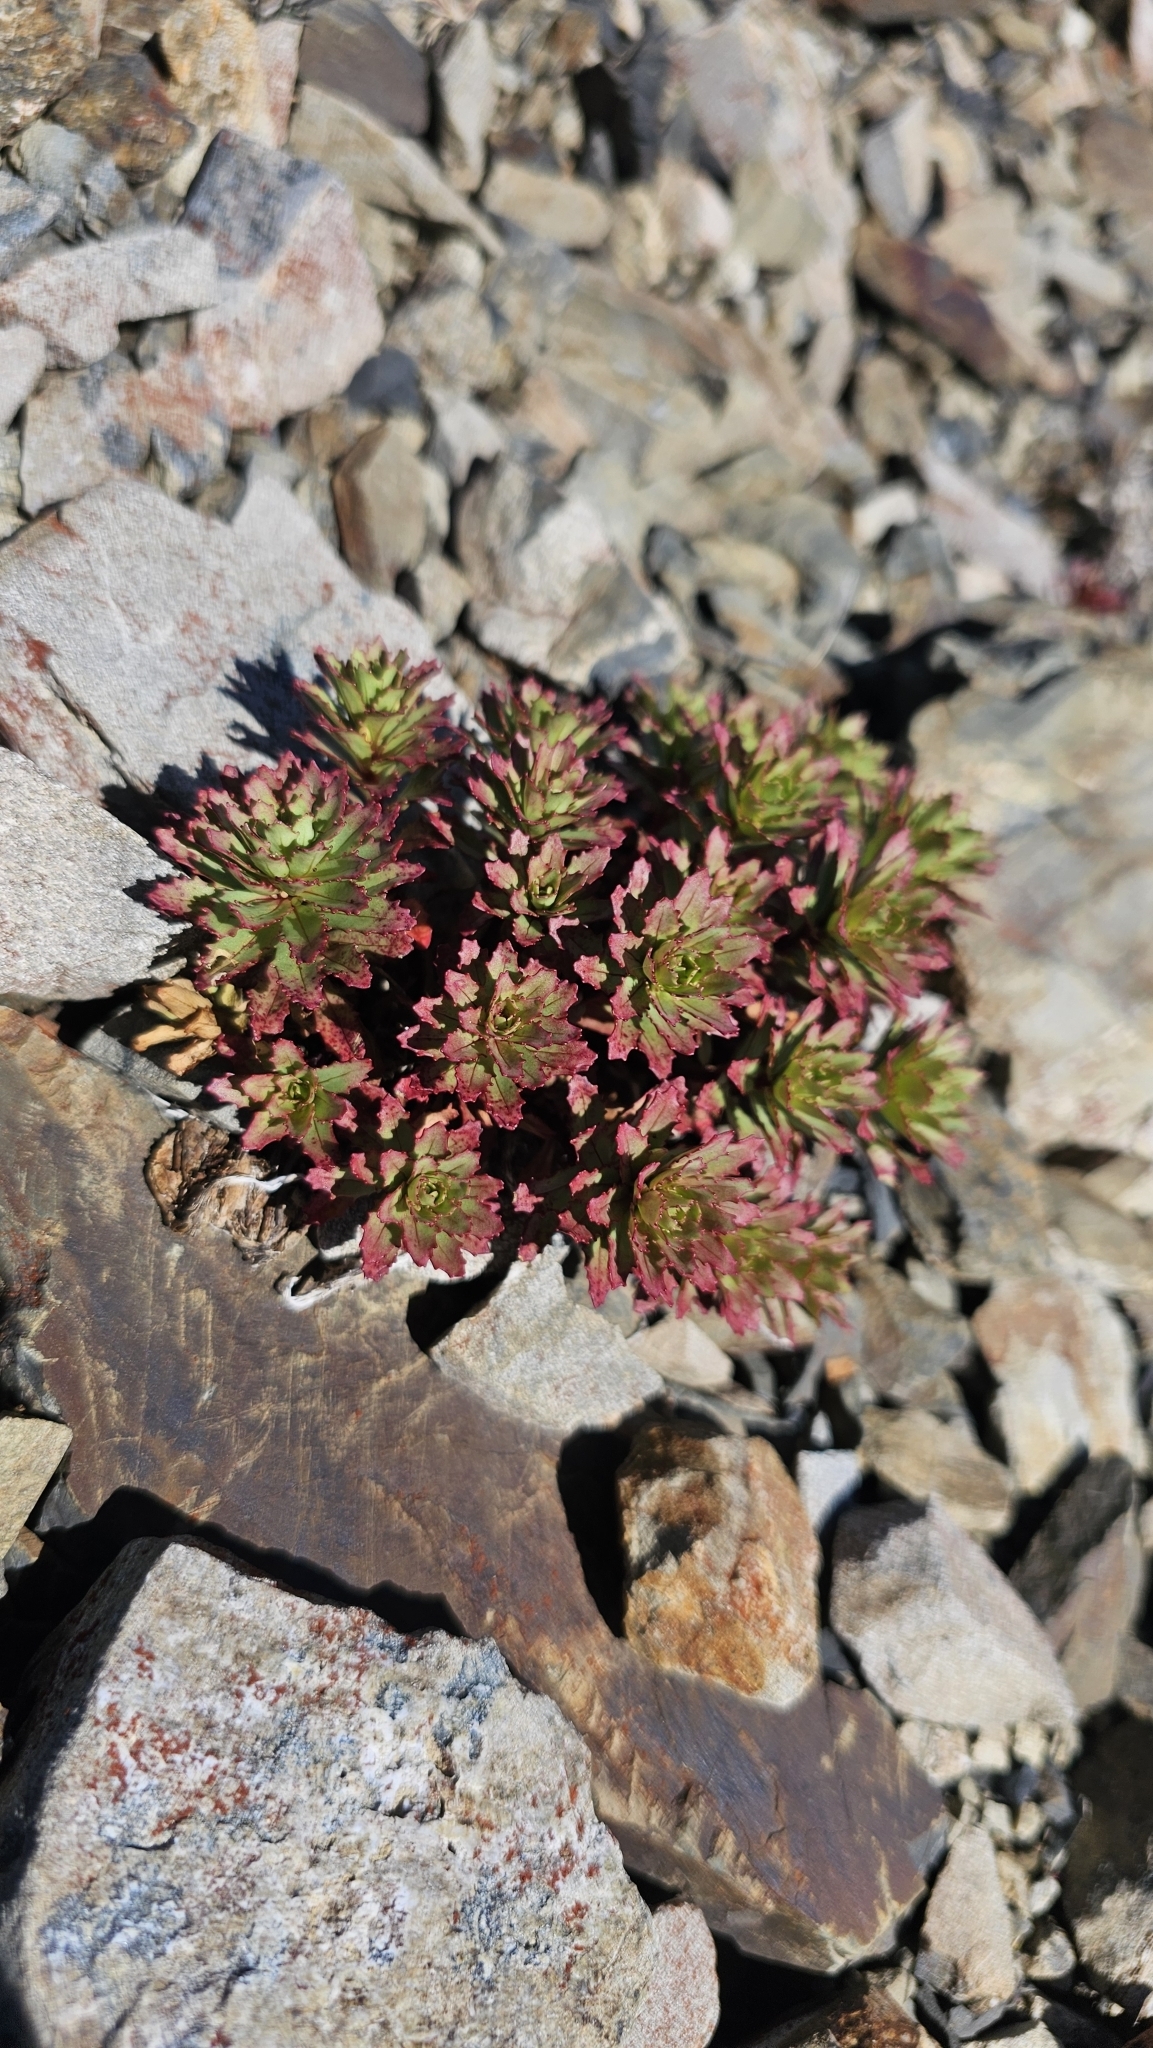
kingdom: Plantae
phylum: Tracheophyta
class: Magnoliopsida
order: Myrtales
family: Onagraceae
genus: Epilobium
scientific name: Epilobium pycnostachyum
